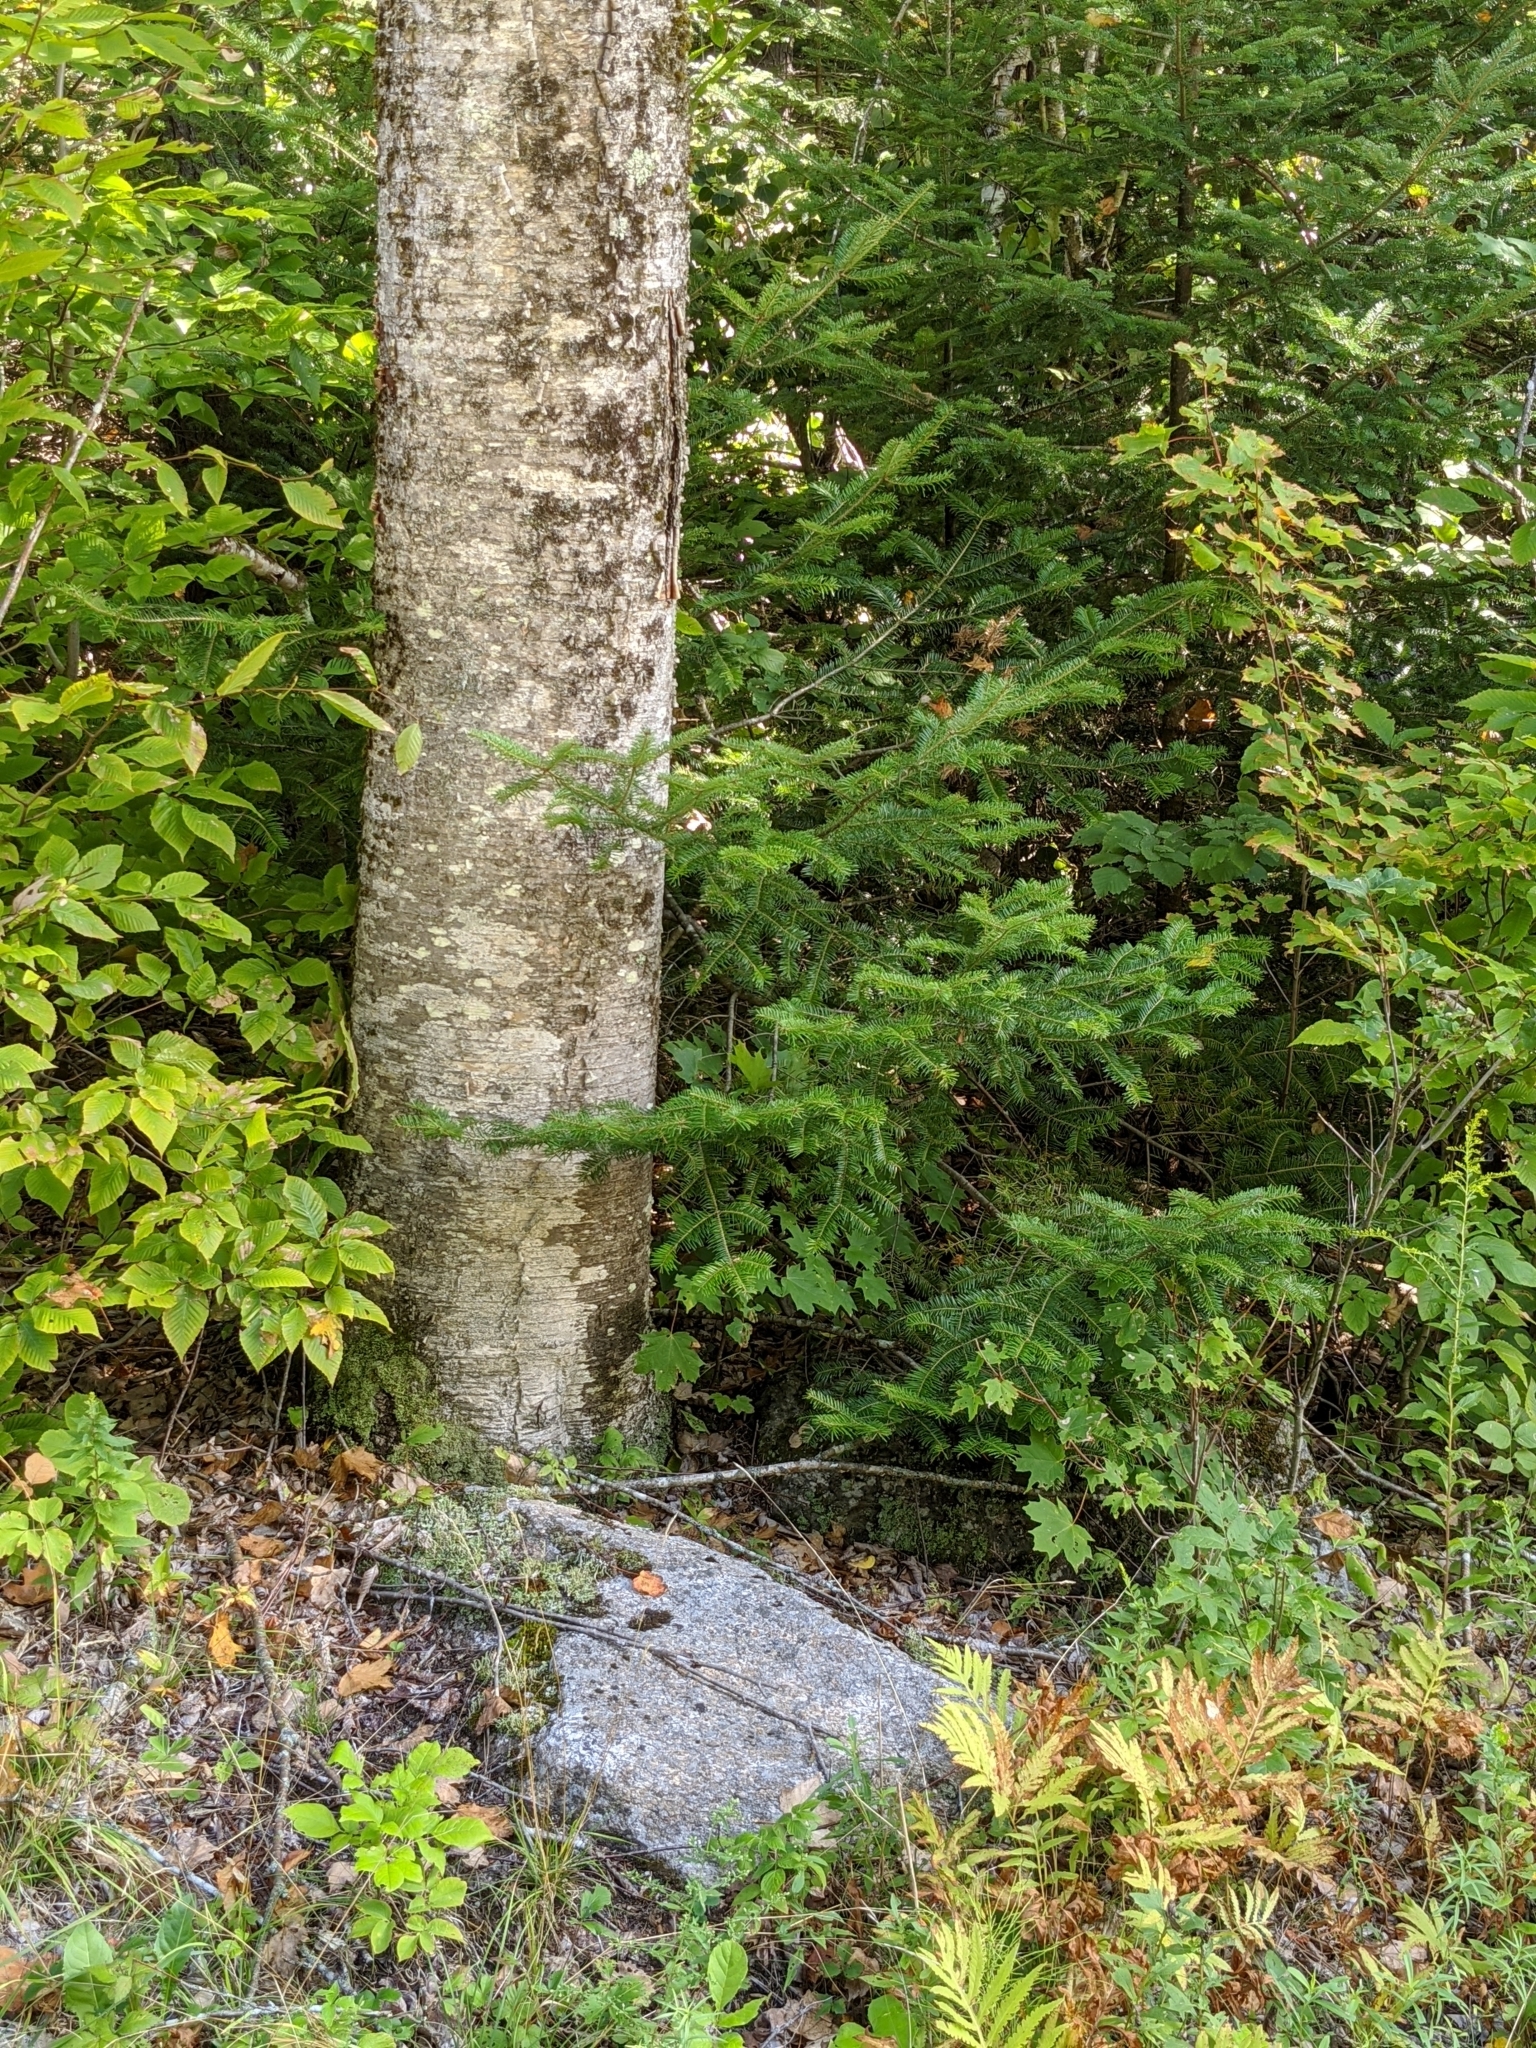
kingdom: Plantae
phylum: Tracheophyta
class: Pinopsida
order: Pinales
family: Pinaceae
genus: Abies
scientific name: Abies balsamea
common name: Balsam fir
